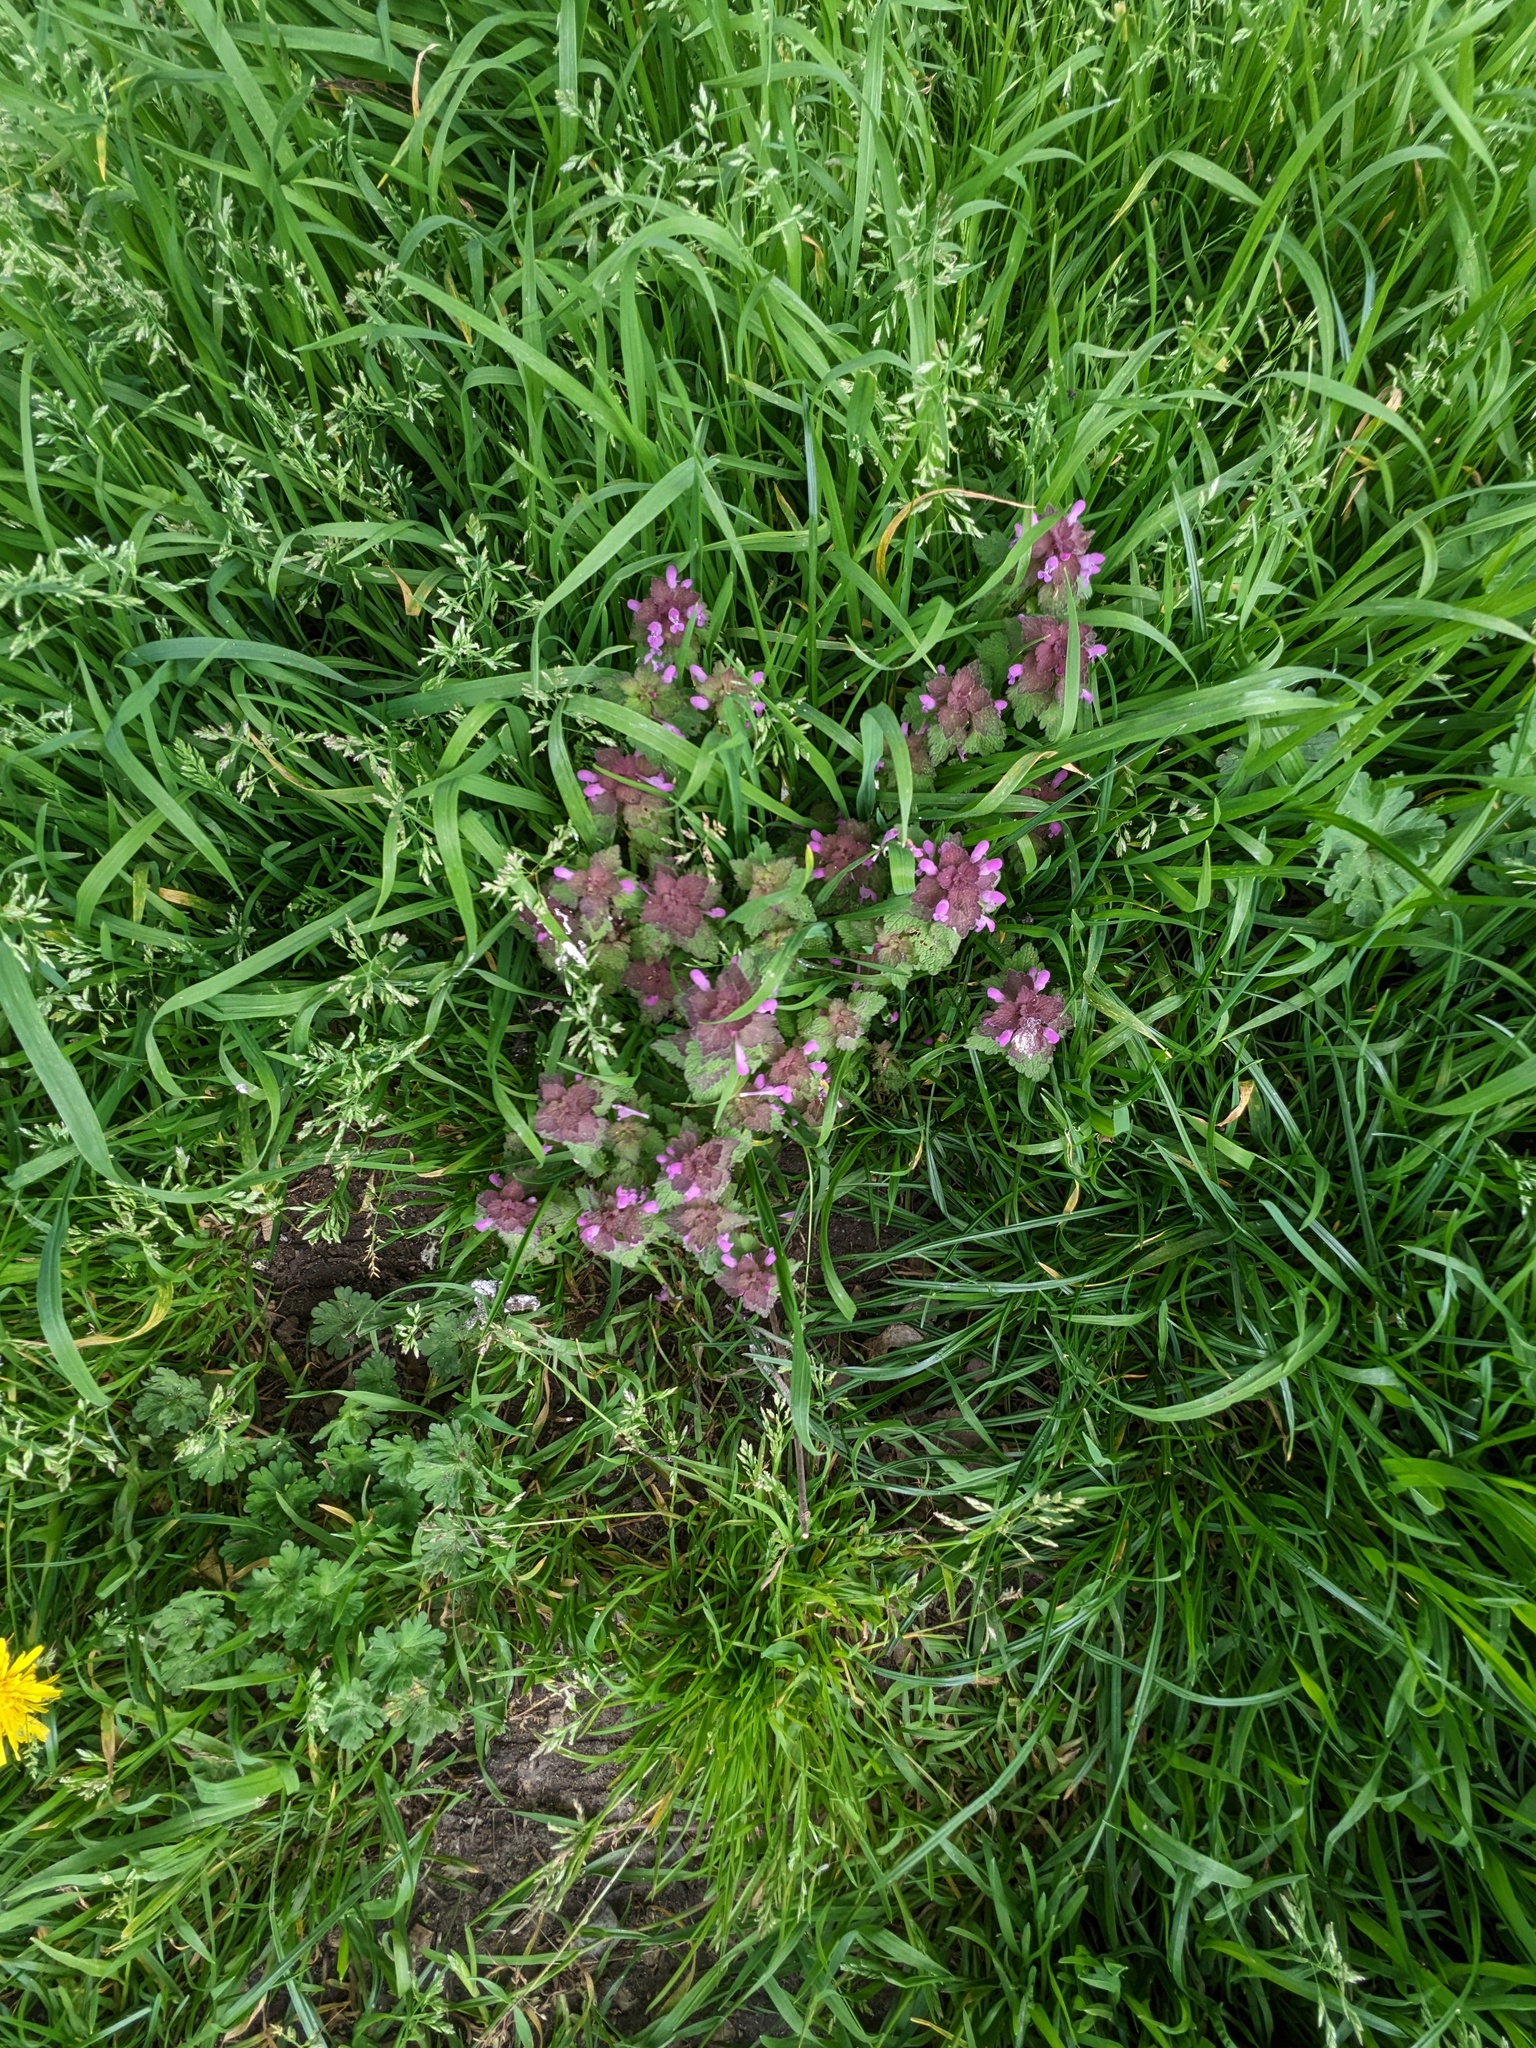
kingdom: Plantae
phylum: Tracheophyta
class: Magnoliopsida
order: Lamiales
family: Lamiaceae
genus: Lamium
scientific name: Lamium purpureum
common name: Red dead-nettle
